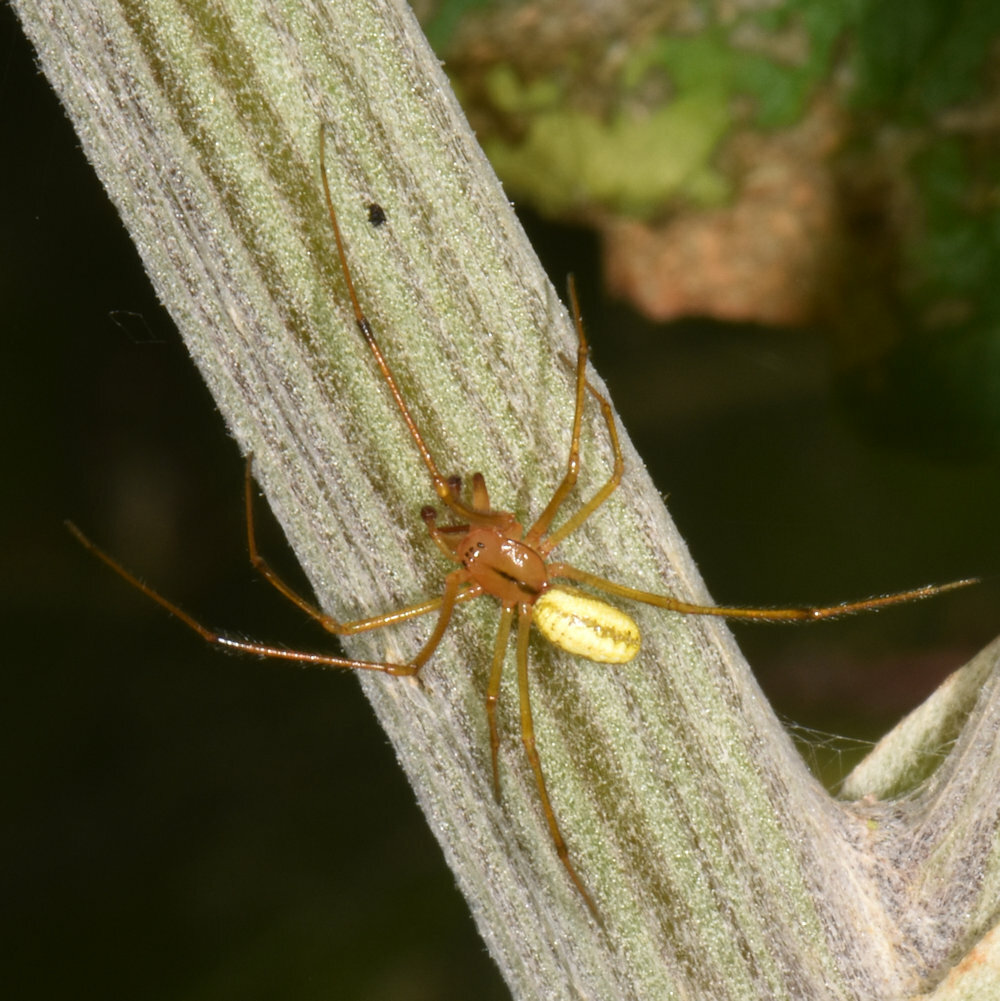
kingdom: Animalia
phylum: Arthropoda
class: Arachnida
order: Araneae
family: Theridiidae
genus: Enoplognatha
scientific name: Enoplognatha ovata
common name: Common candy-striped spider
